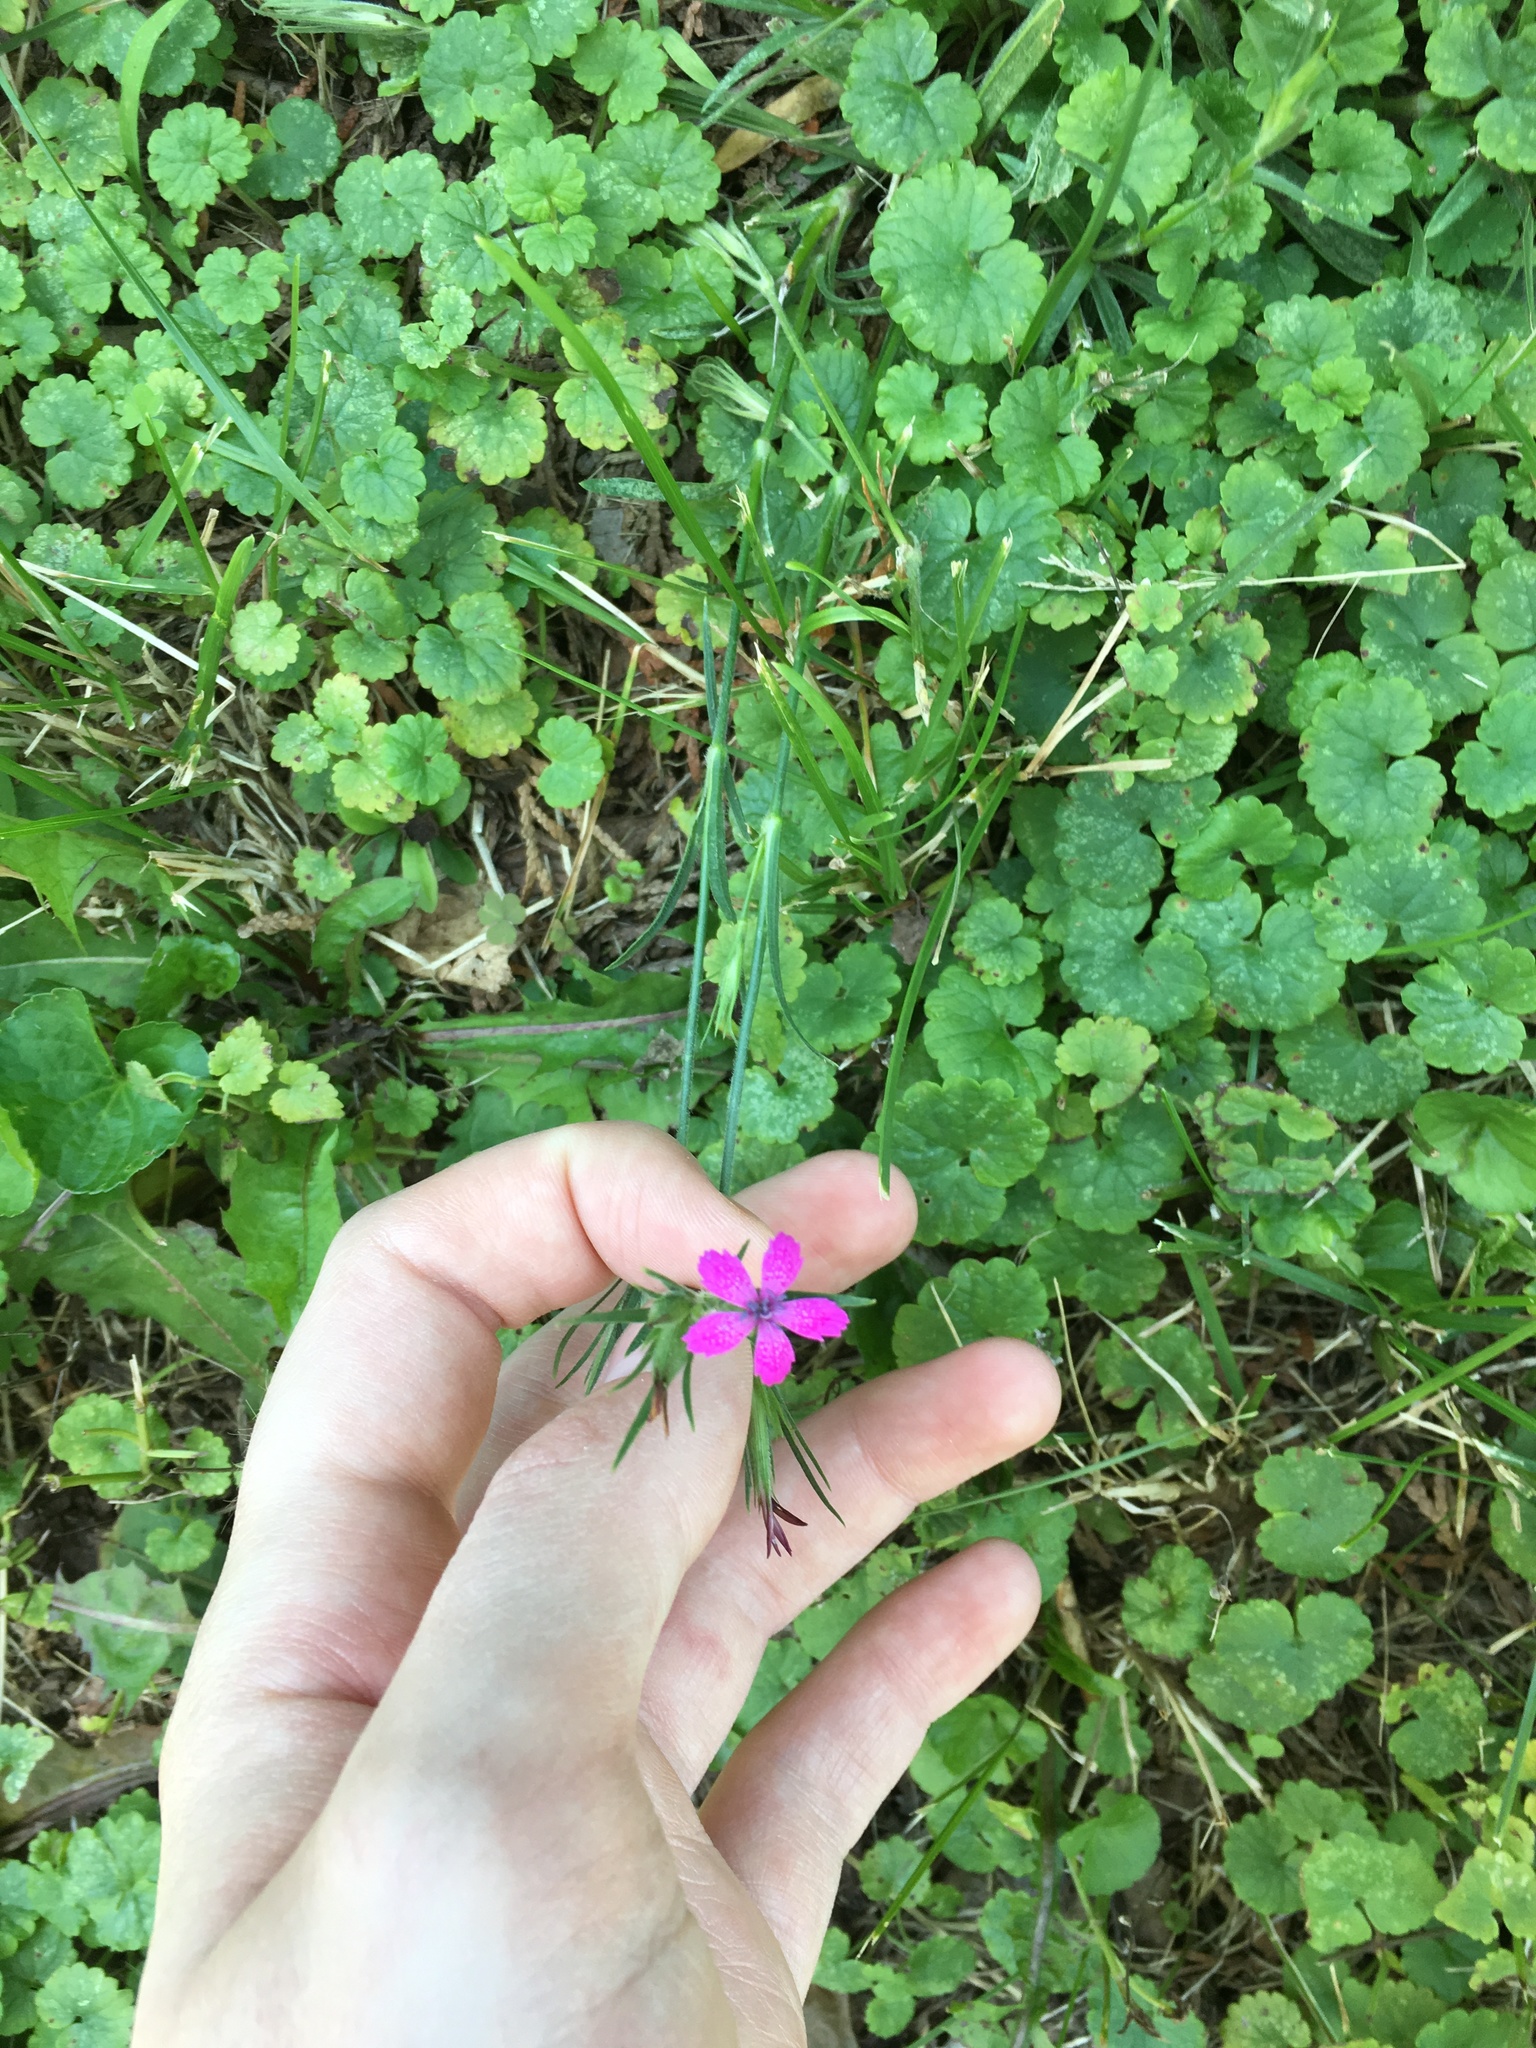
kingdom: Plantae
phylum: Tracheophyta
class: Magnoliopsida
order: Caryophyllales
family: Caryophyllaceae
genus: Dianthus
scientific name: Dianthus armeria
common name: Deptford pink
